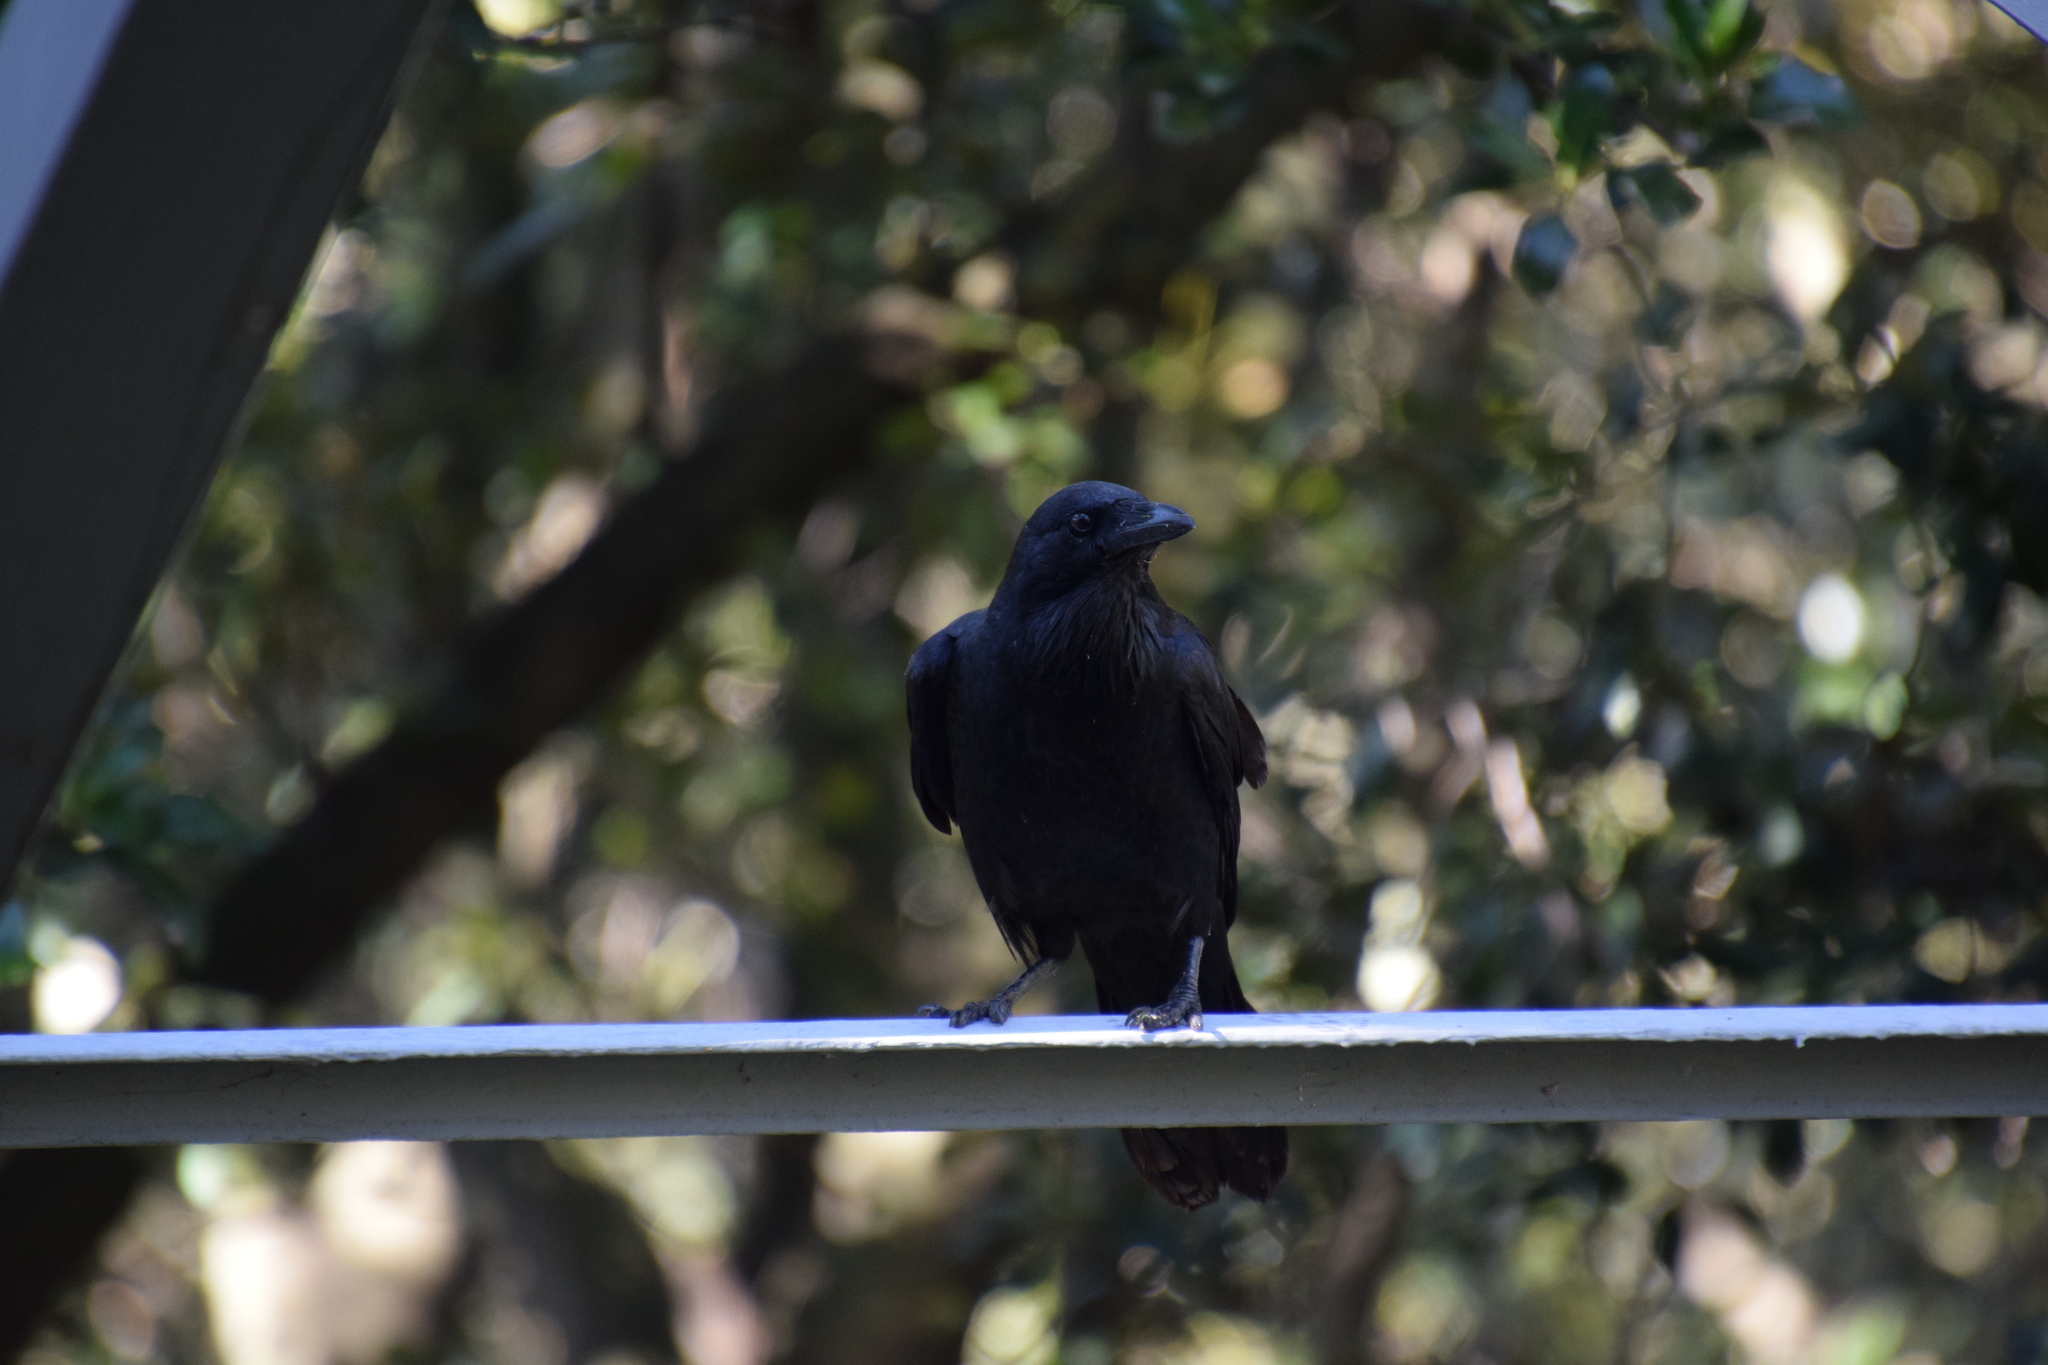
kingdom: Animalia
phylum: Chordata
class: Aves
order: Passeriformes
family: Corvidae
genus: Corvus
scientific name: Corvus coronoides
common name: Australian raven
